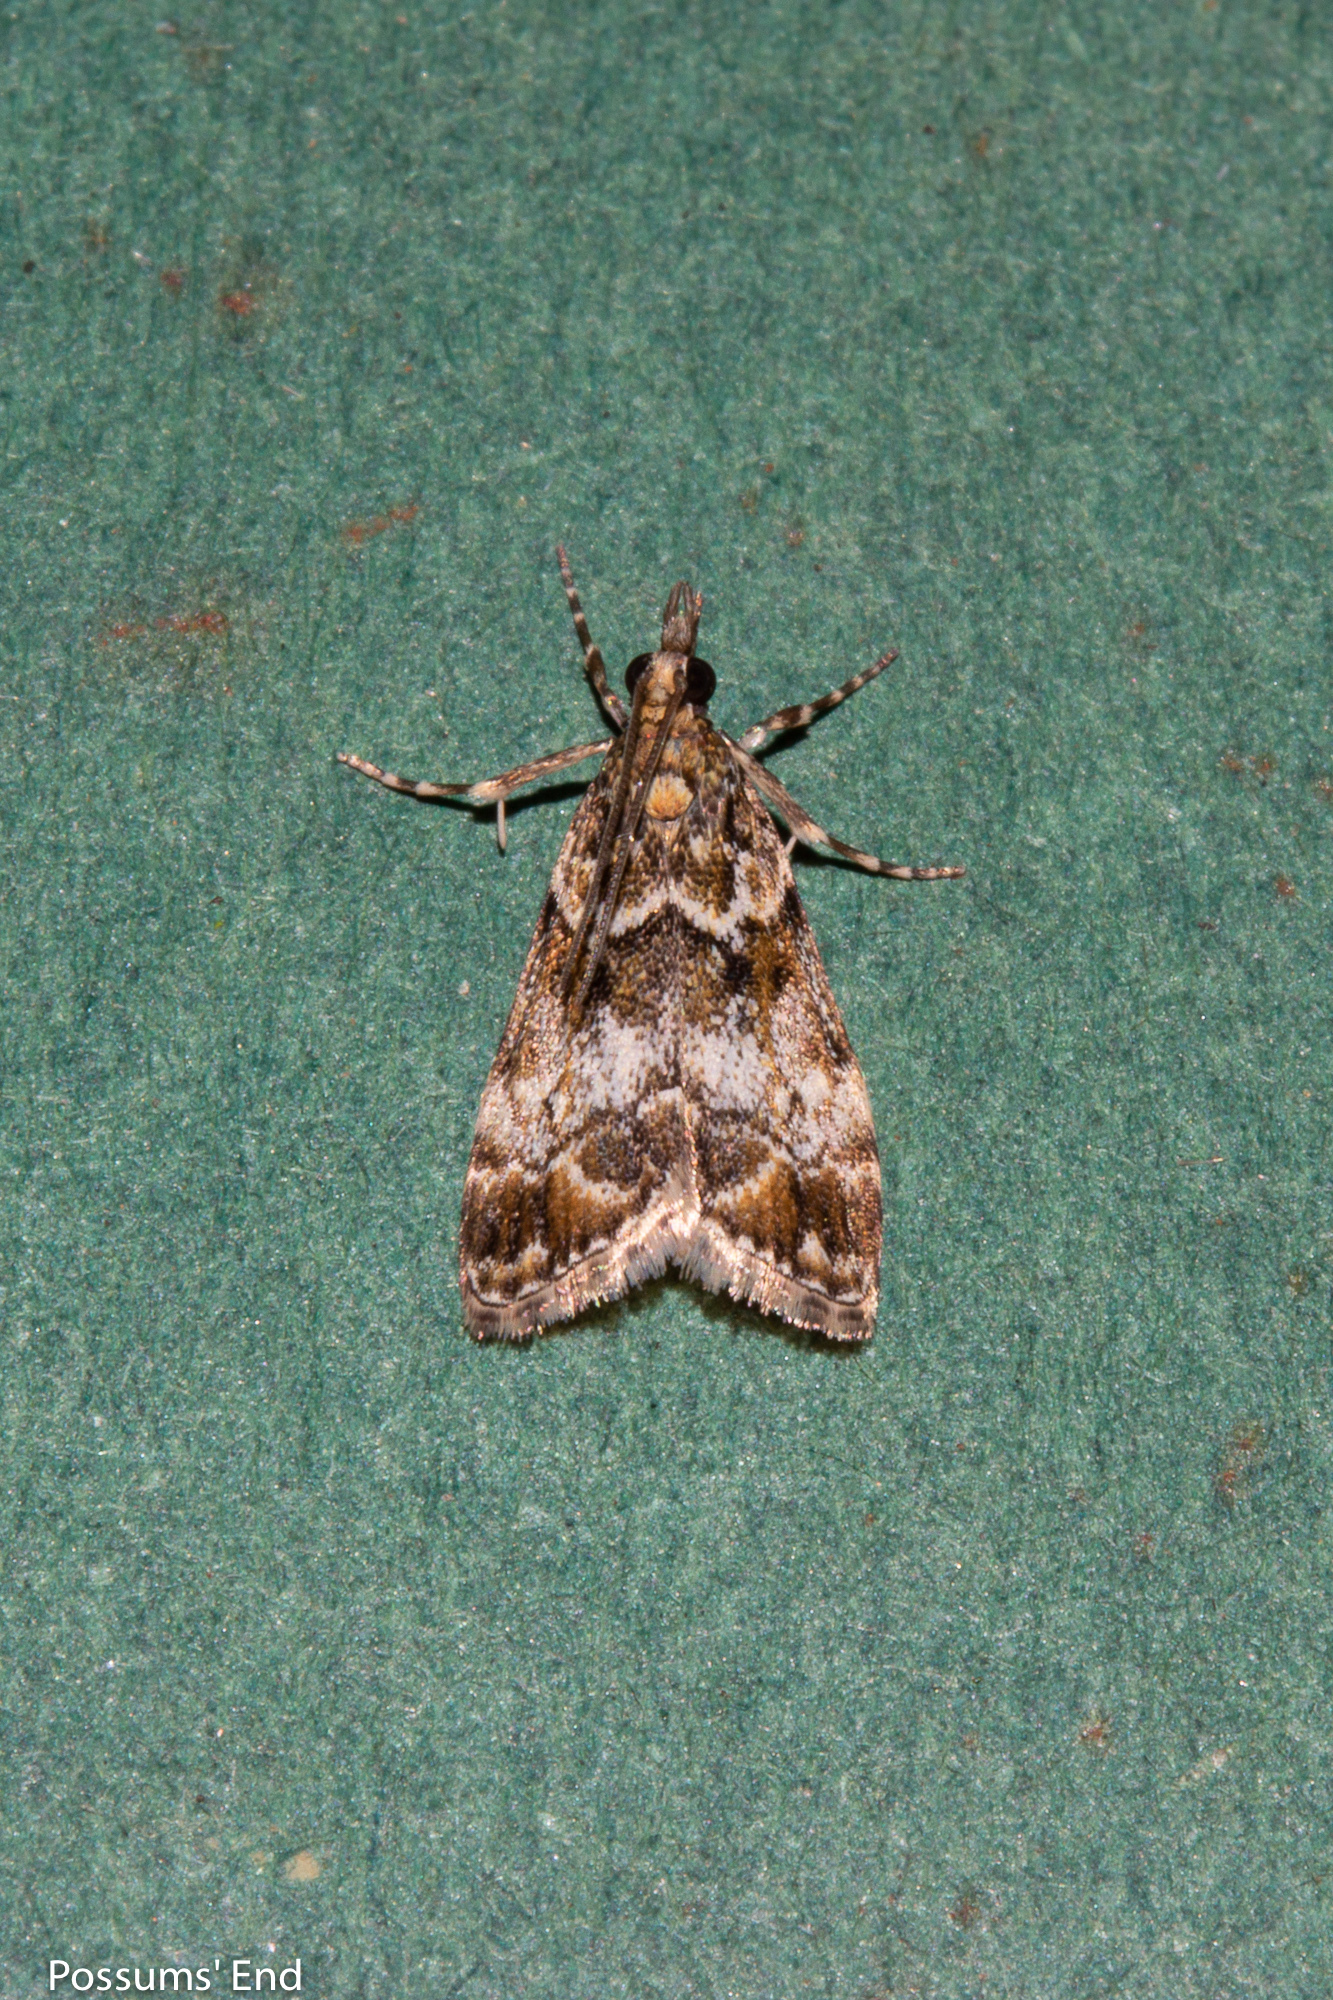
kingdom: Animalia
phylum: Arthropoda
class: Insecta
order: Lepidoptera
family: Crambidae
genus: Eudonia
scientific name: Eudonia dinodes
